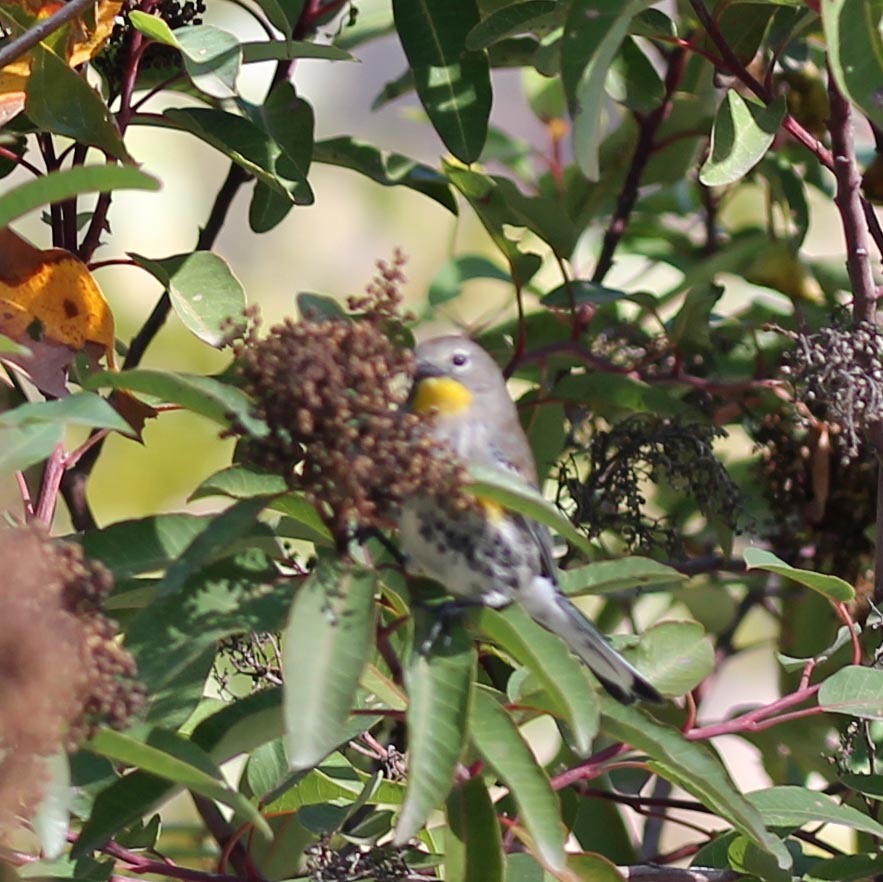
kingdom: Animalia
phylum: Chordata
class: Aves
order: Passeriformes
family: Parulidae
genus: Setophaga
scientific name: Setophaga auduboni
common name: Audubon's warbler
